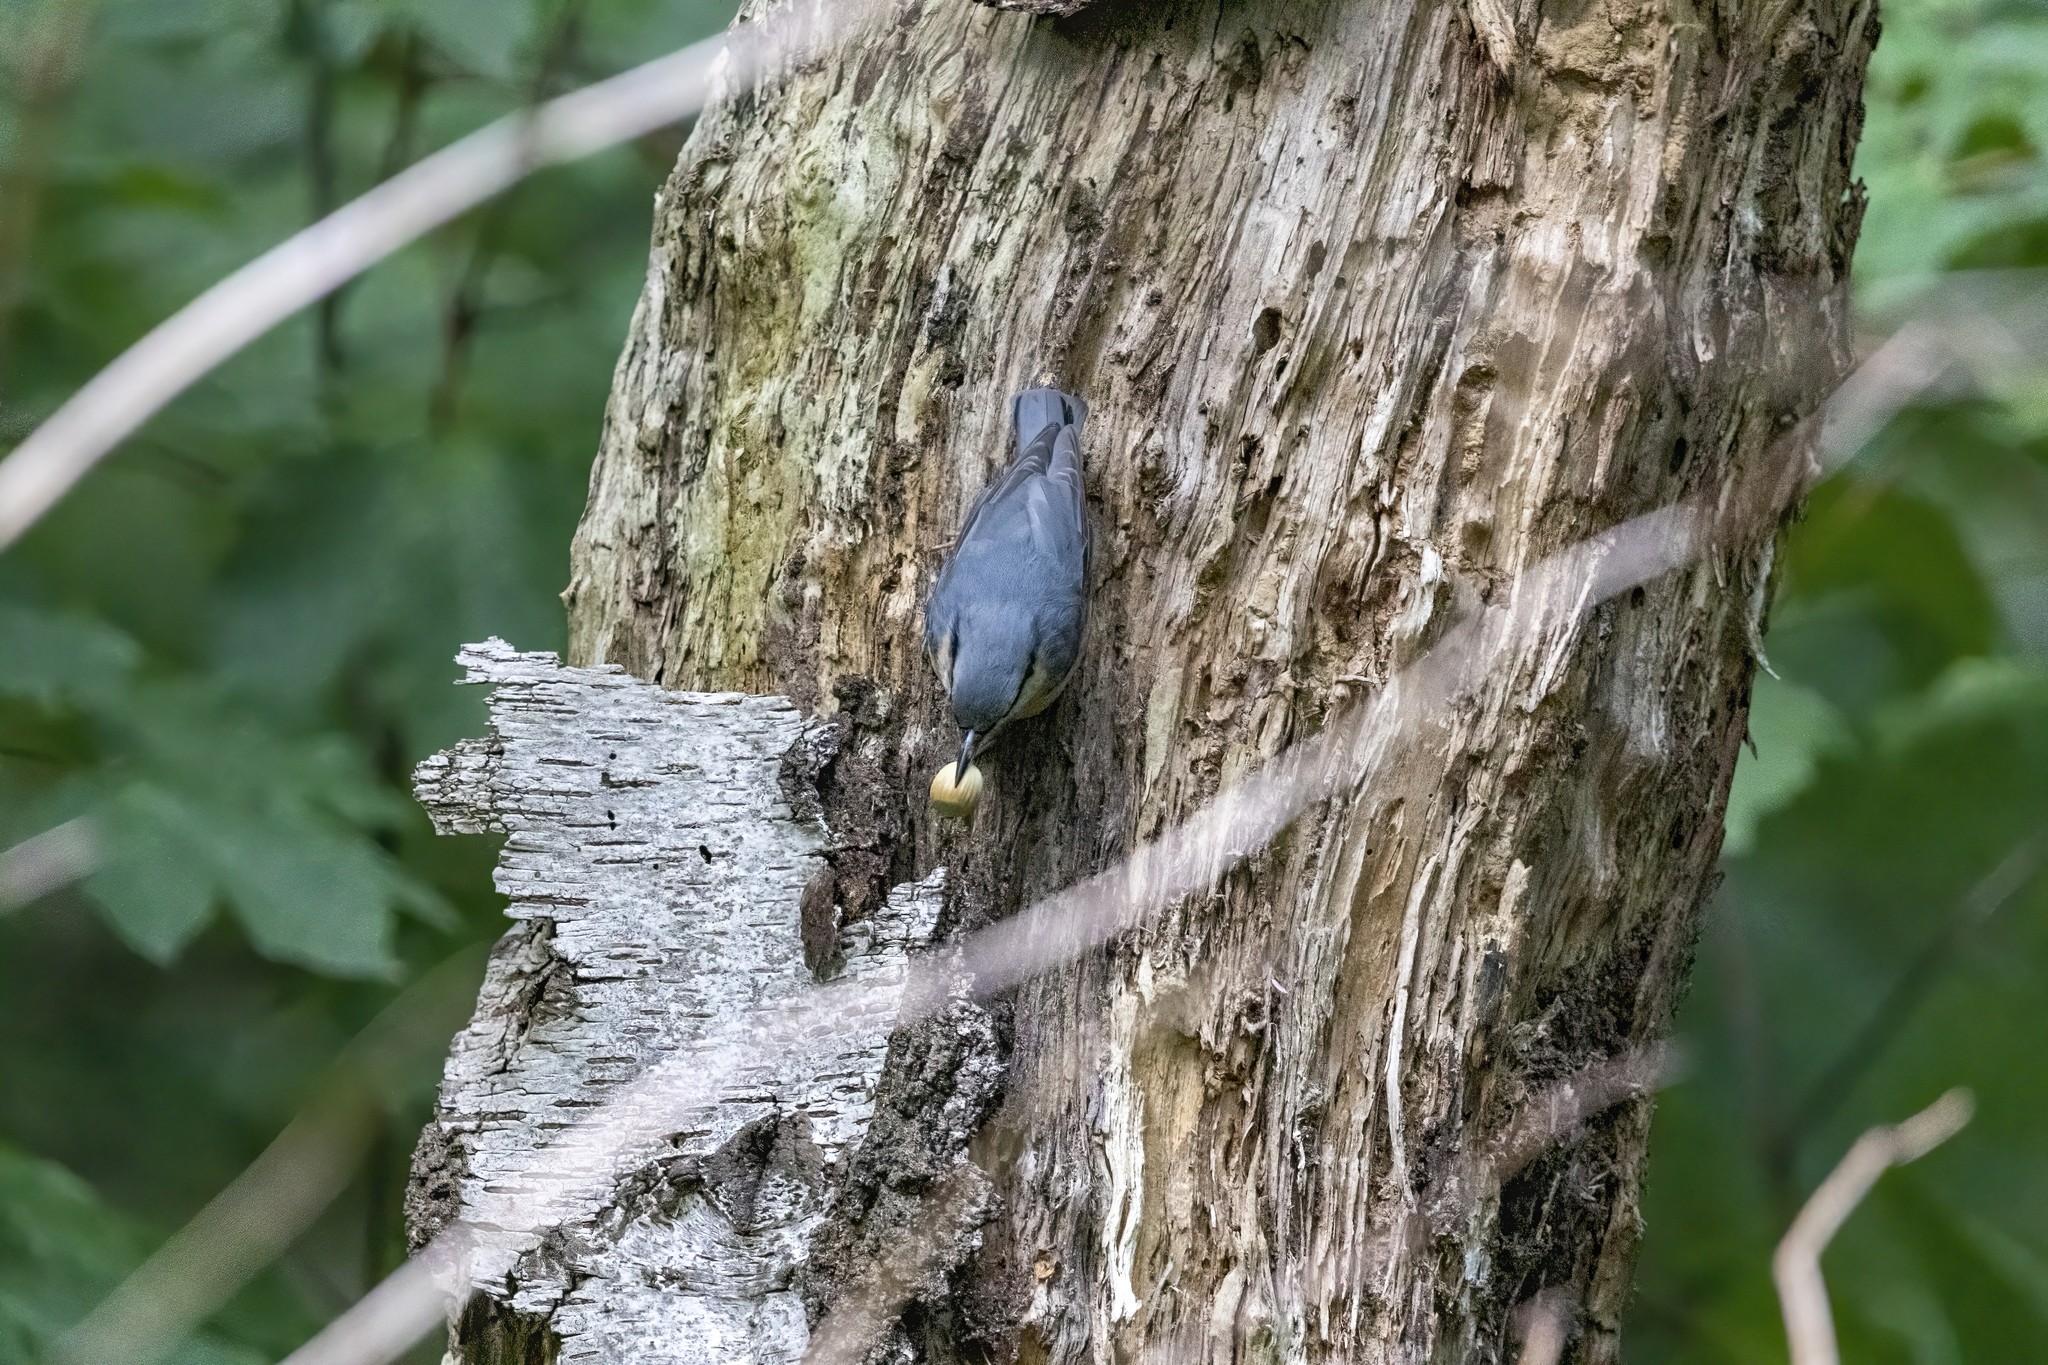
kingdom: Animalia
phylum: Chordata
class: Aves
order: Passeriformes
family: Sittidae
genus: Sitta
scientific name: Sitta europaea
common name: Eurasian nuthatch
